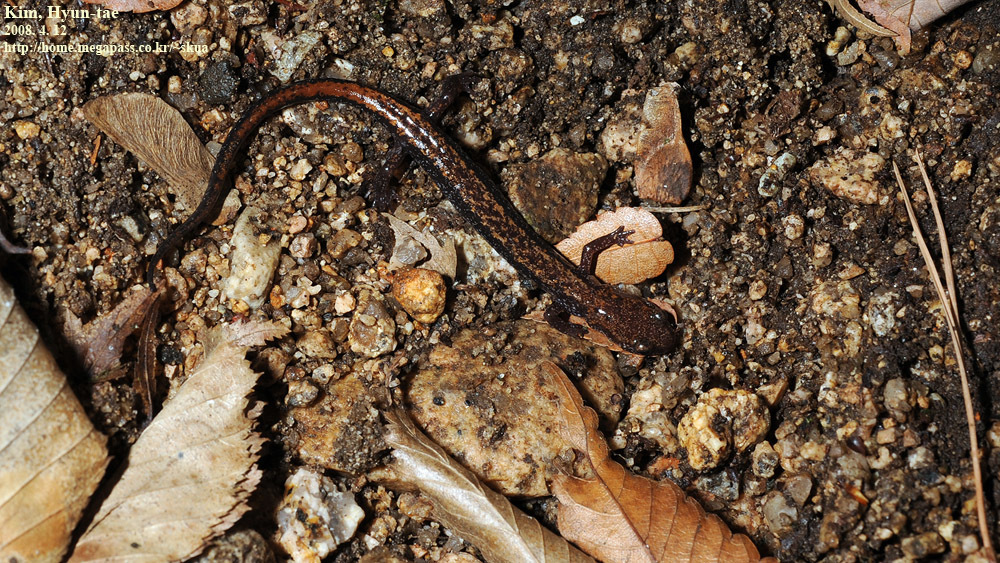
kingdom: Animalia
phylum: Chordata
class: Amphibia
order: Caudata
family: Plethodontidae
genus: Karsenia
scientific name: Karsenia koreana
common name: Korean crevice salamander
